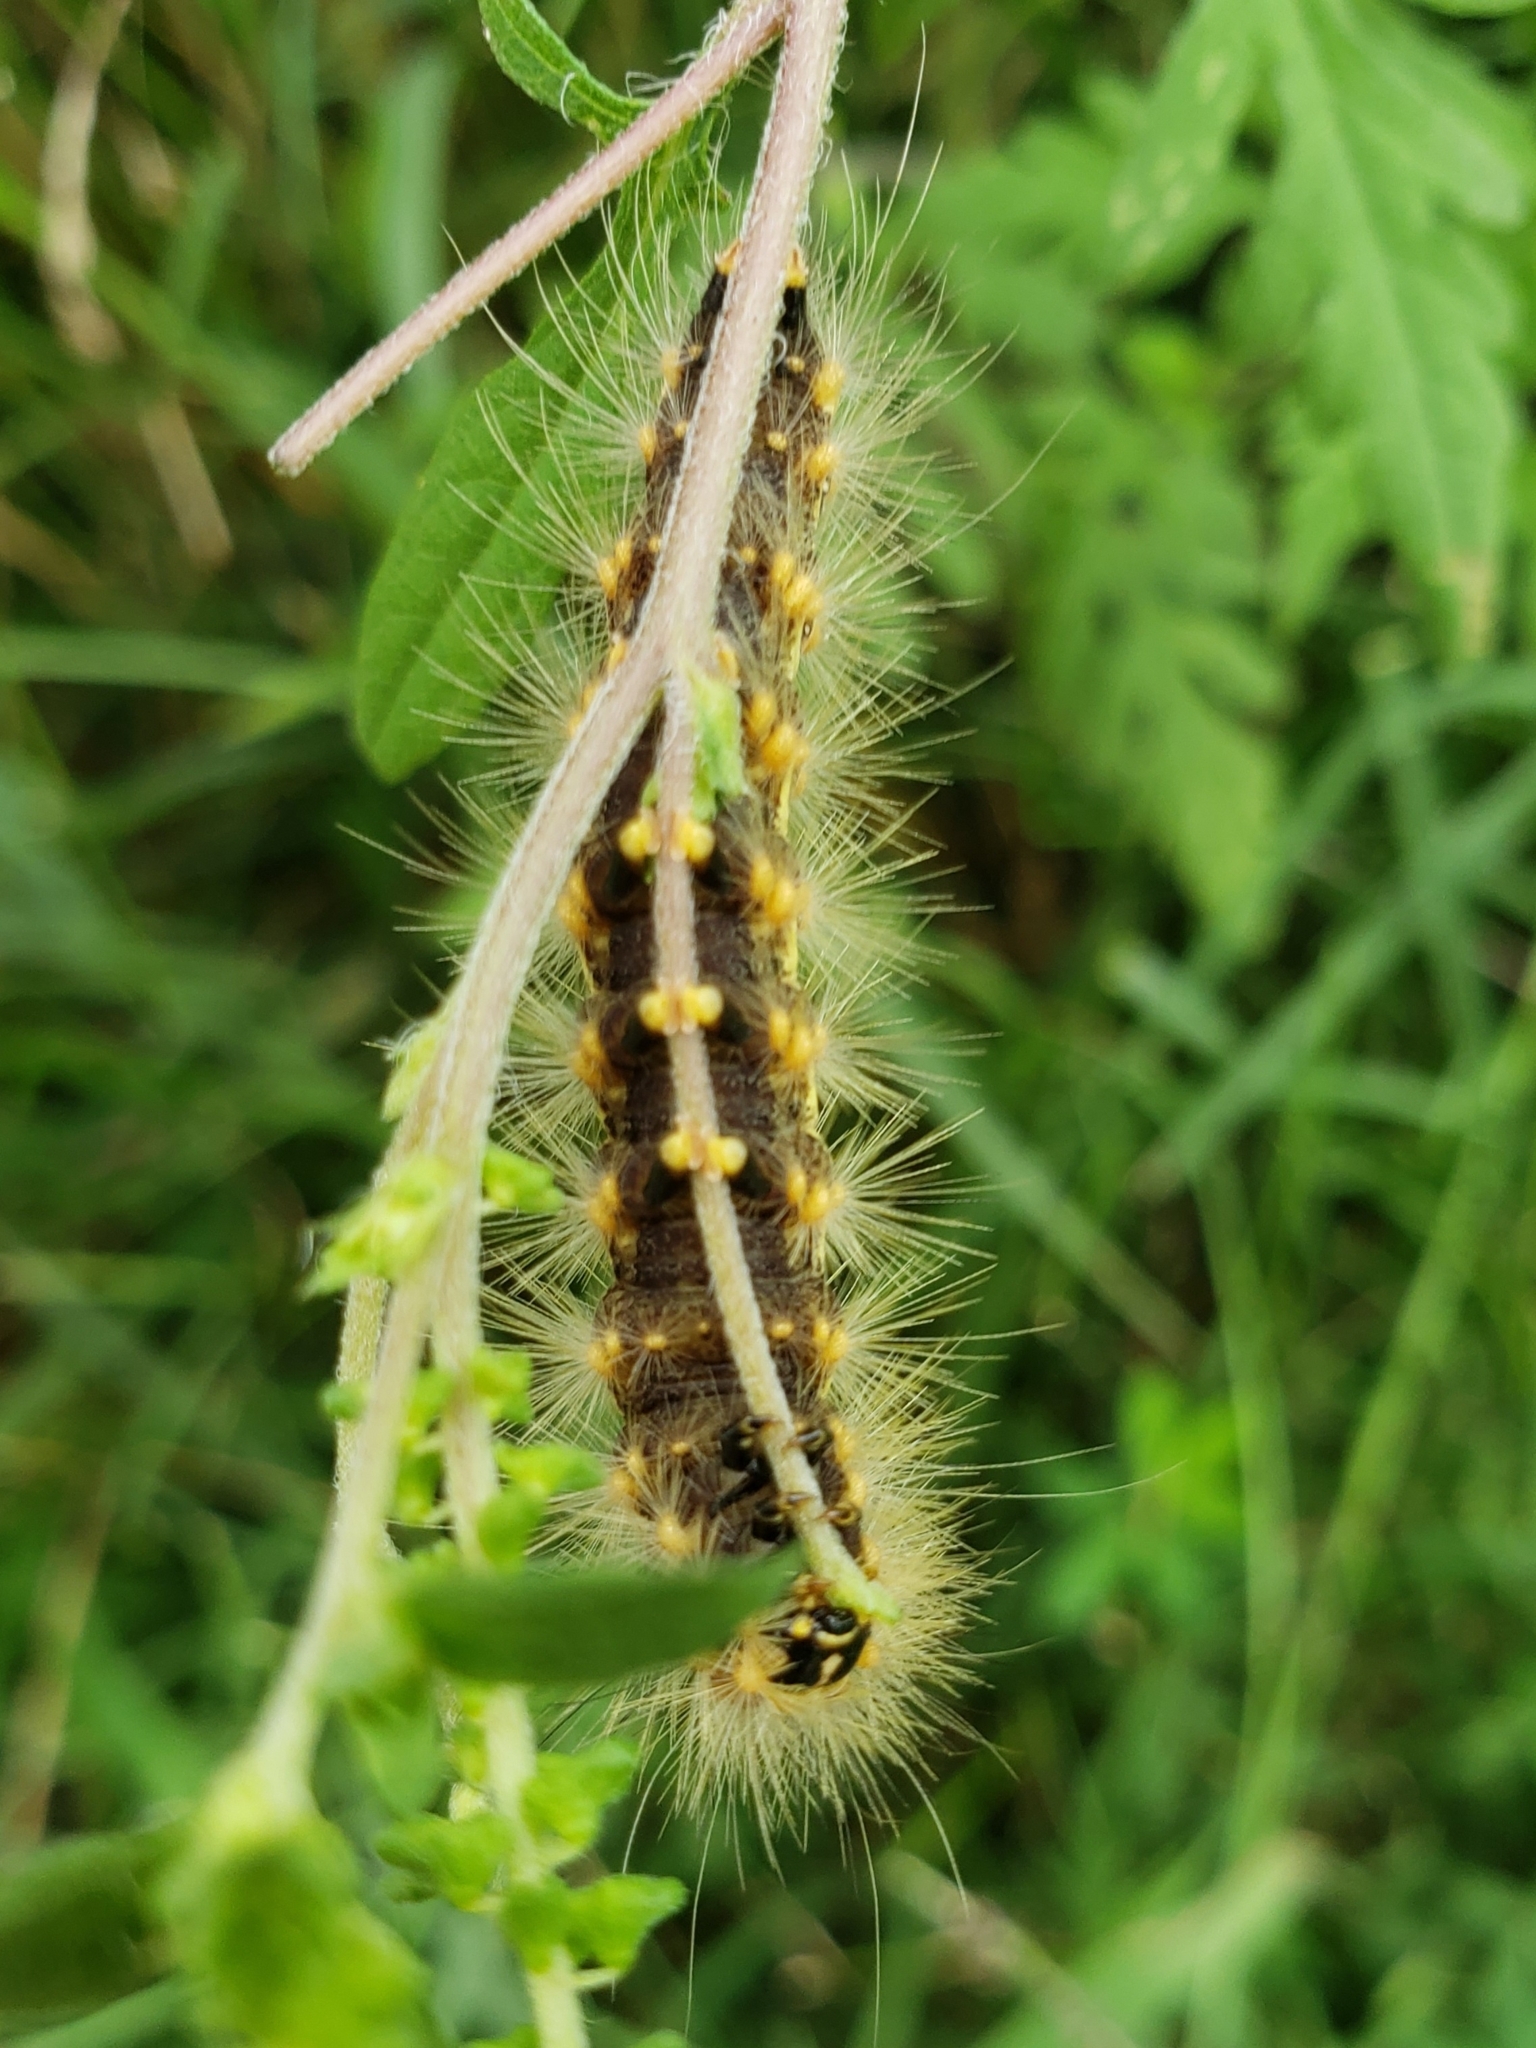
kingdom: Animalia
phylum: Arthropoda
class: Insecta
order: Lepidoptera
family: Erebidae
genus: Estigmene
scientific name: Estigmene acrea
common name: Salt marsh moth
